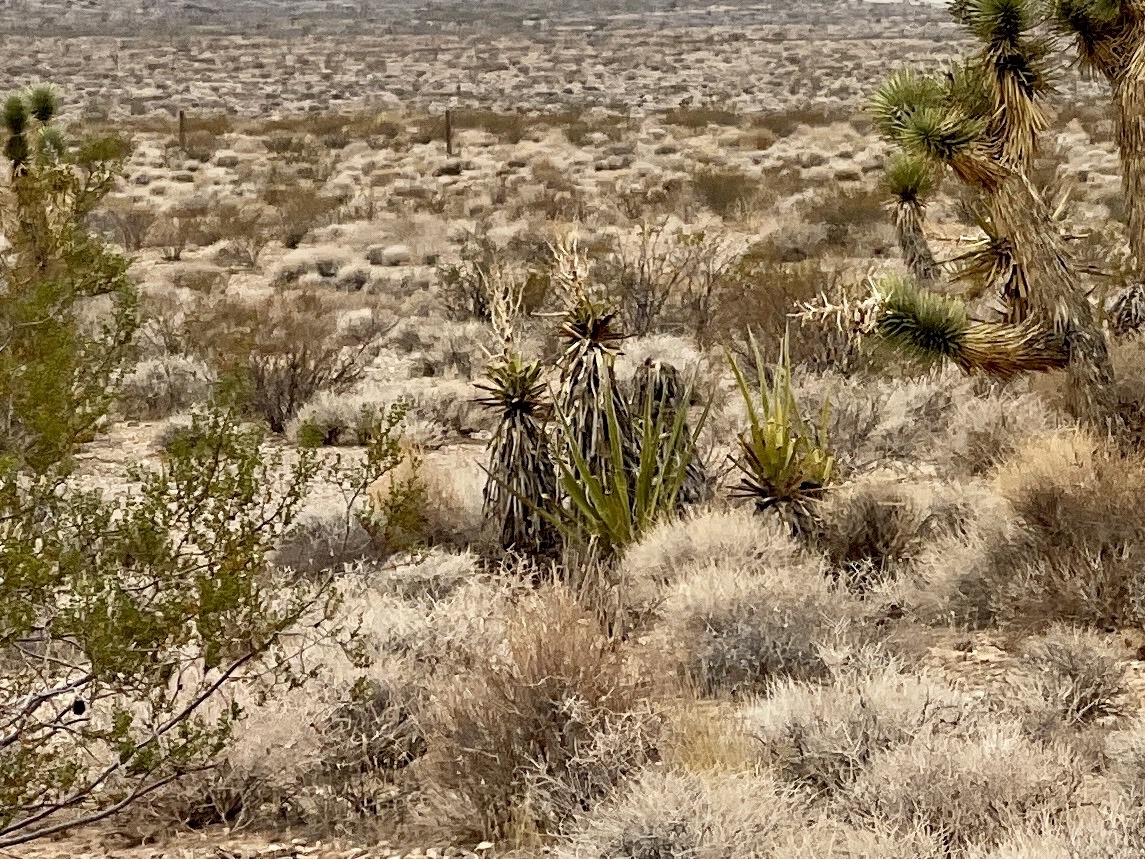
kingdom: Plantae
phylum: Tracheophyta
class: Liliopsida
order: Asparagales
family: Asparagaceae
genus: Yucca
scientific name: Yucca schidigera
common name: Mojave yucca
